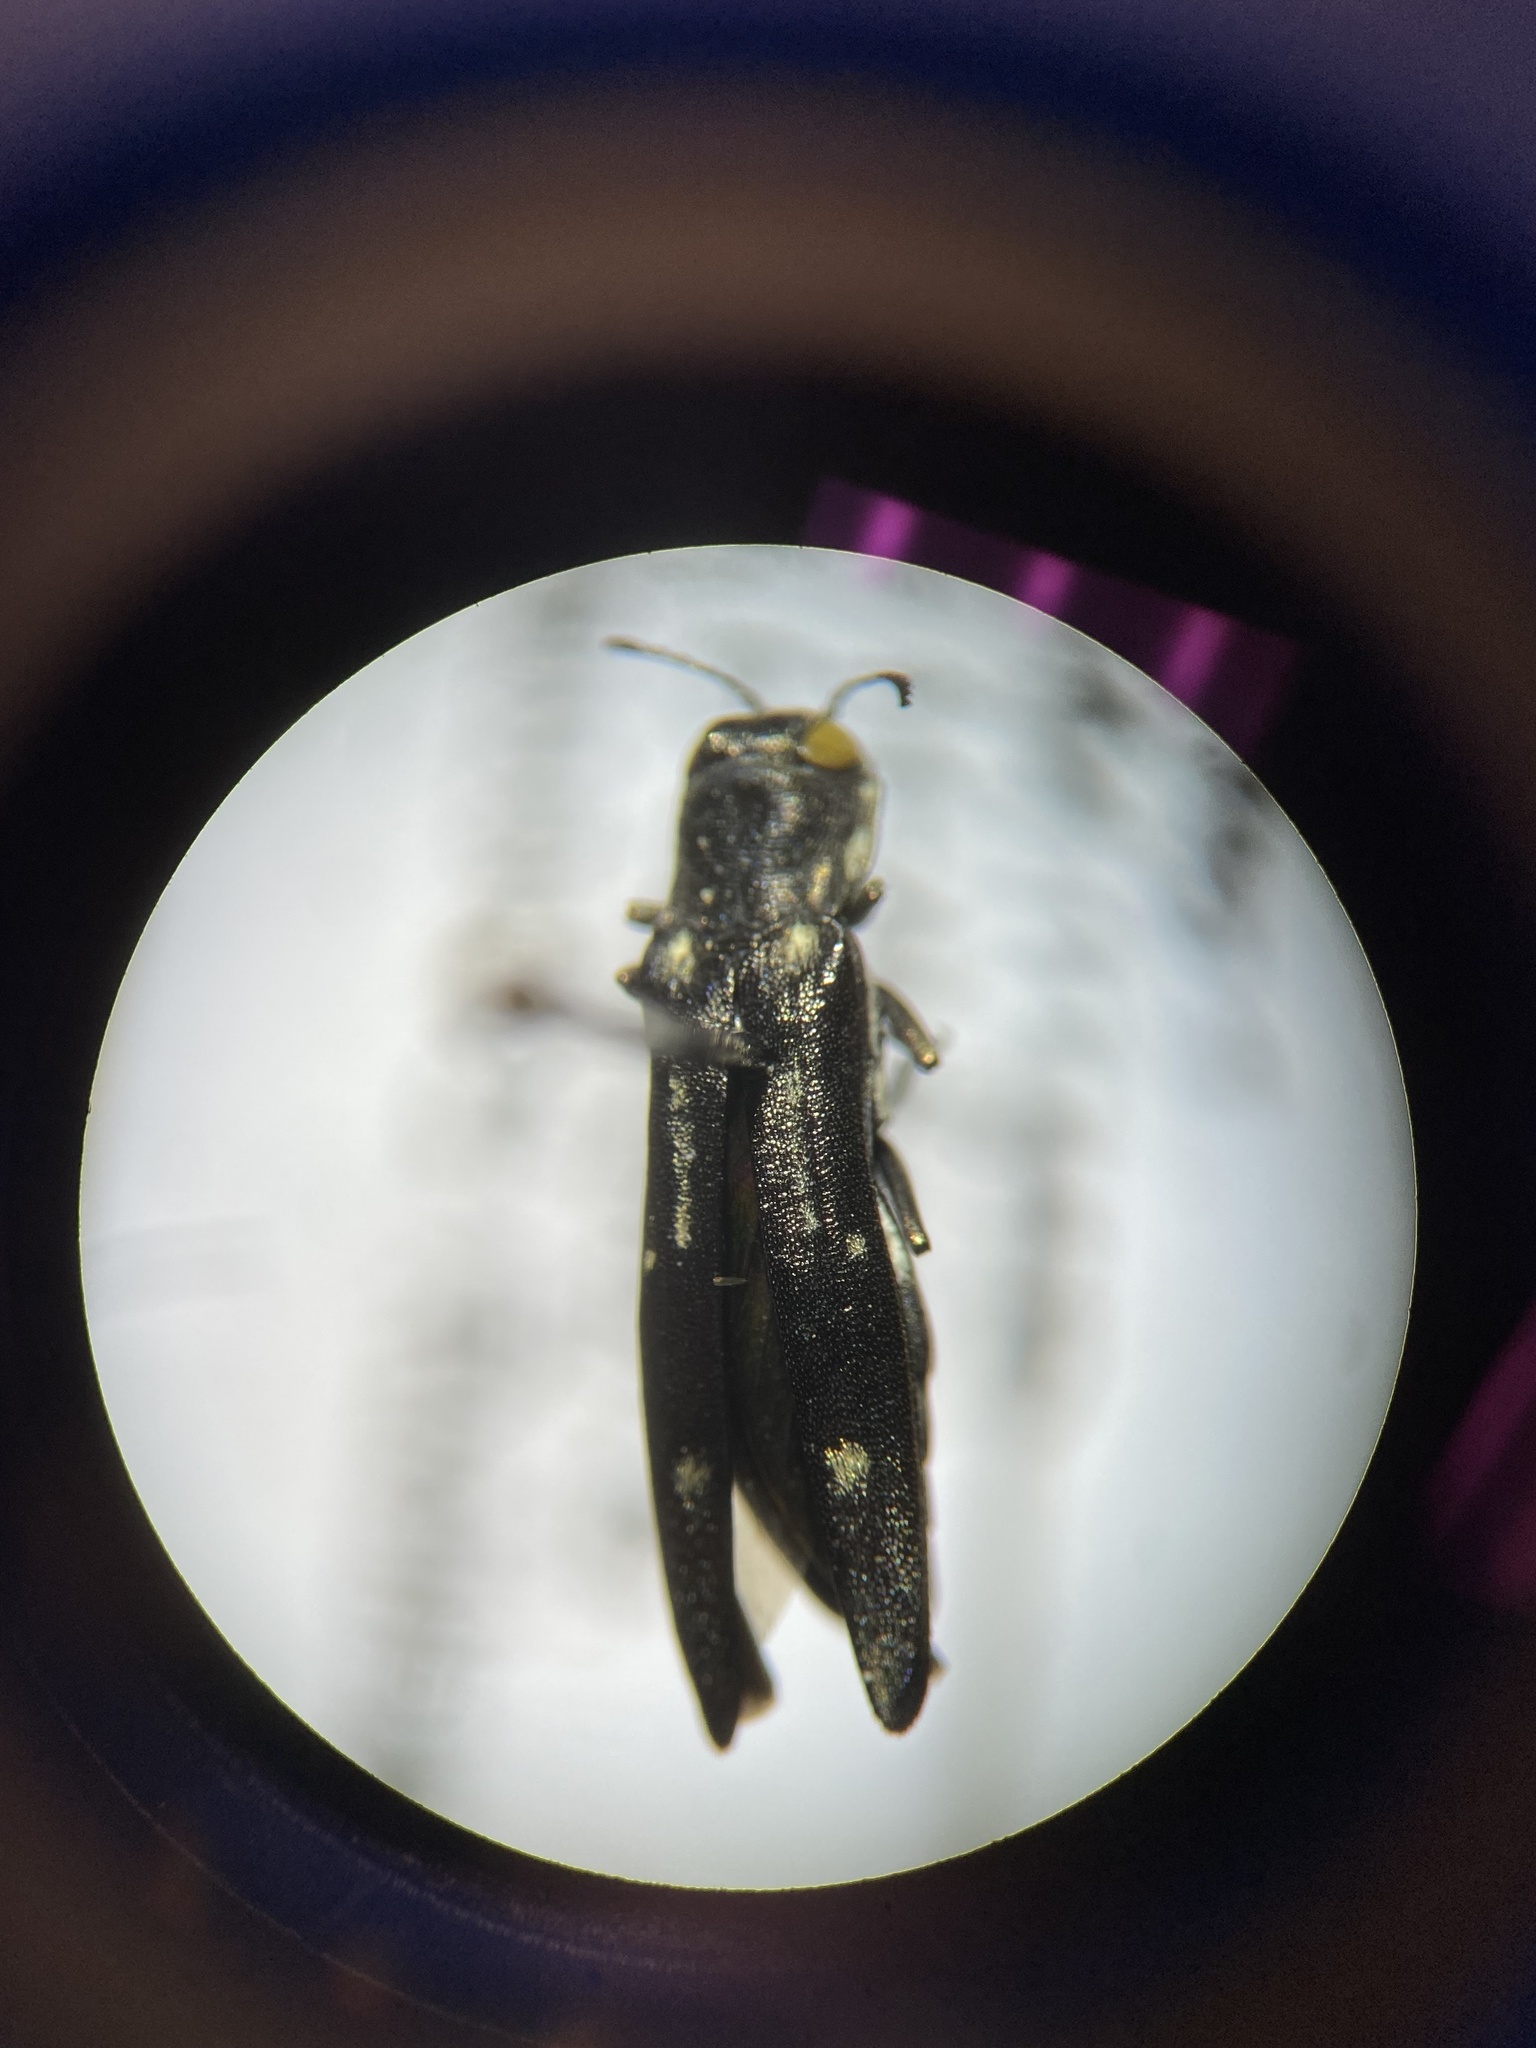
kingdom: Animalia
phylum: Arthropoda
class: Insecta
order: Coleoptera
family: Buprestidae
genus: Agrilus
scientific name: Agrilus obsoletoguttatus
